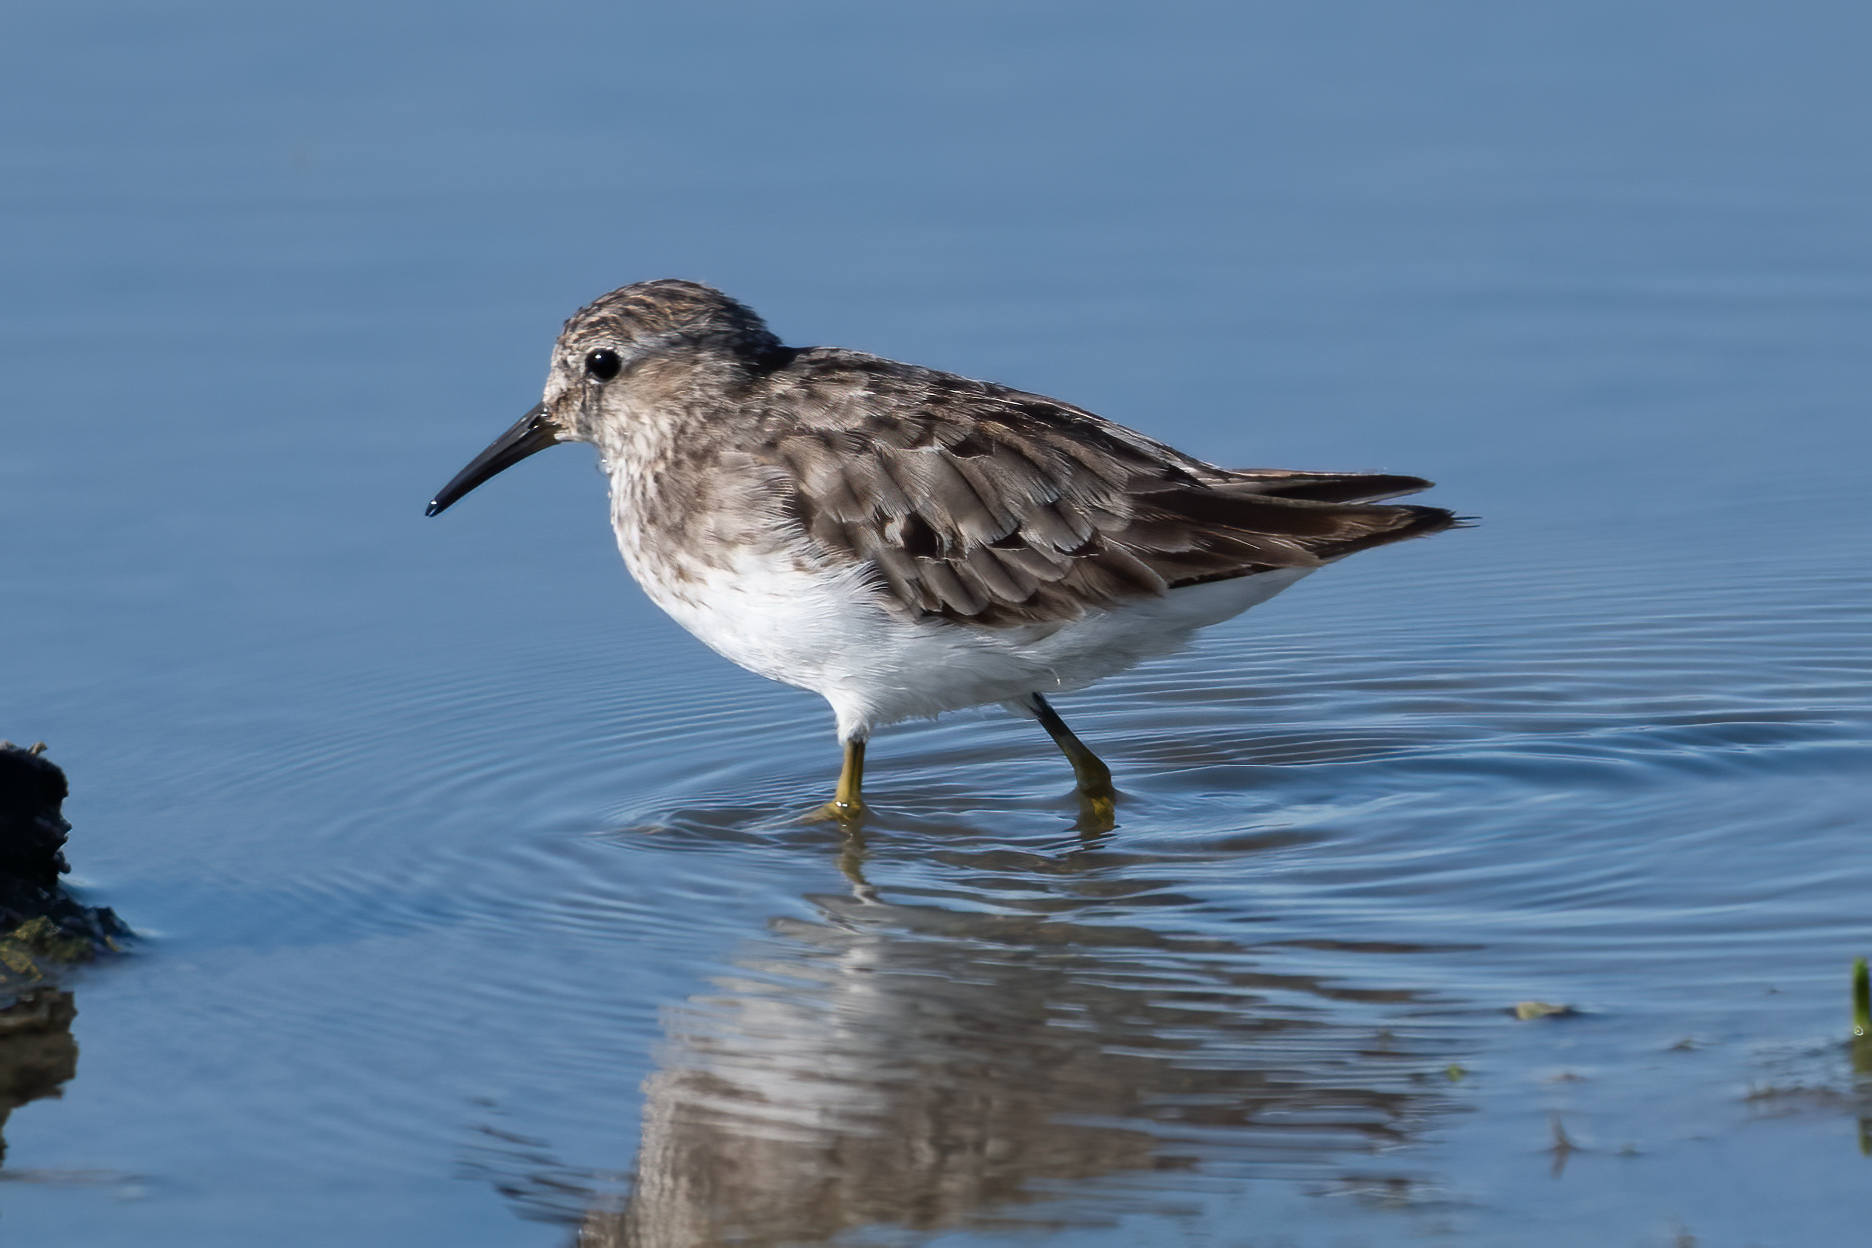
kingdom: Animalia
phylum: Chordata
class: Aves
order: Charadriiformes
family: Scolopacidae
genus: Calidris
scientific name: Calidris minutilla
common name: Least sandpiper
